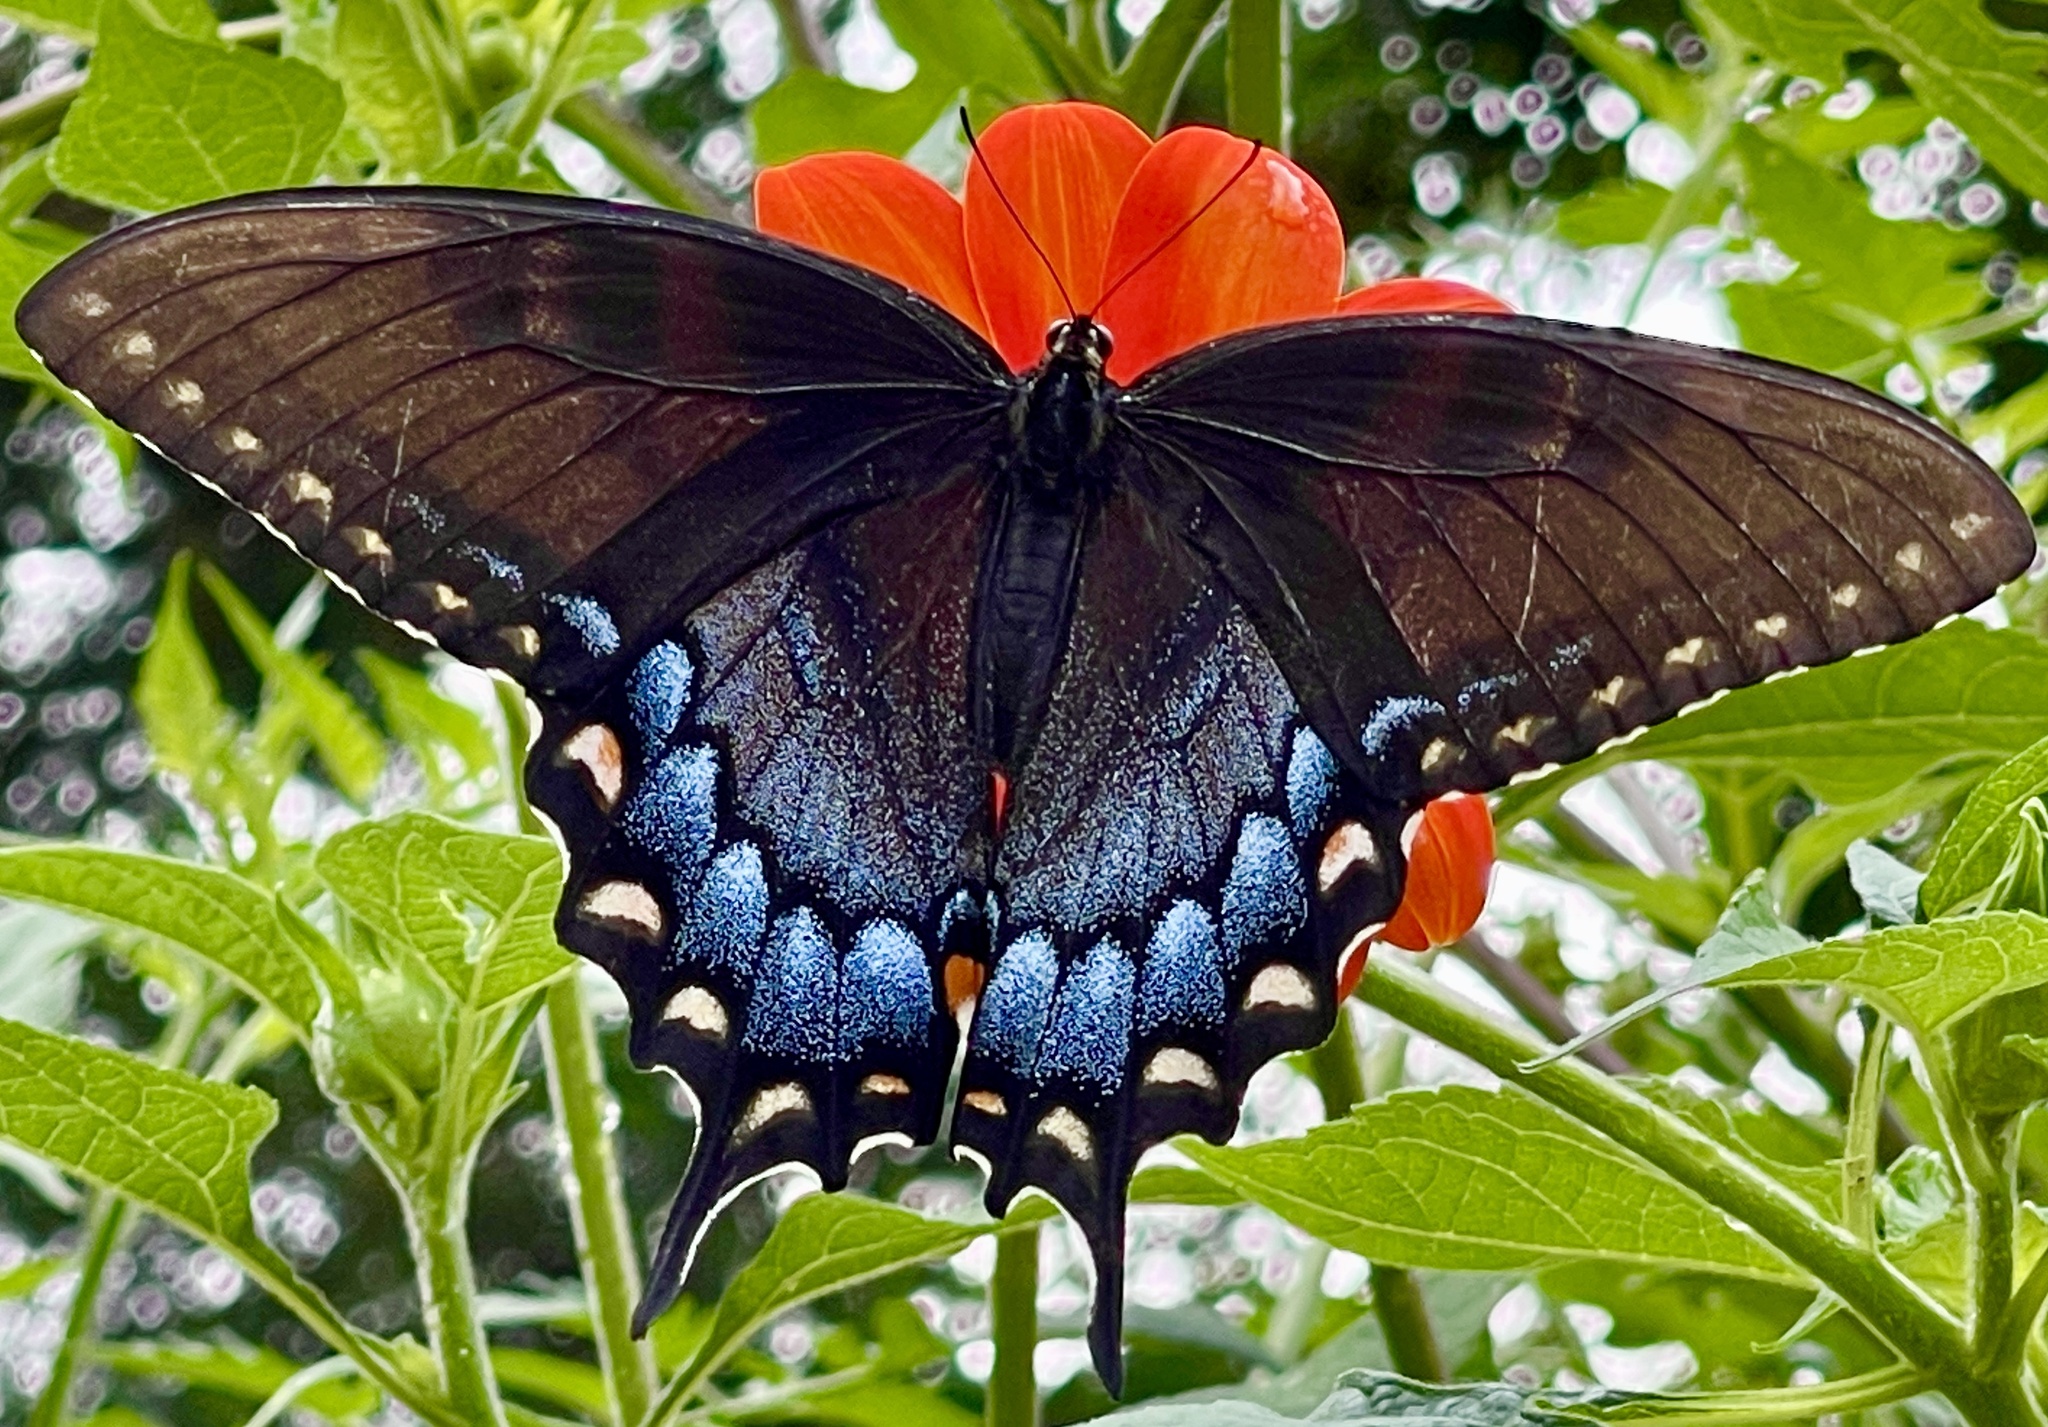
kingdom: Animalia
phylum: Arthropoda
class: Insecta
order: Lepidoptera
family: Papilionidae
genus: Papilio
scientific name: Papilio glaucus
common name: Tiger swallowtail
